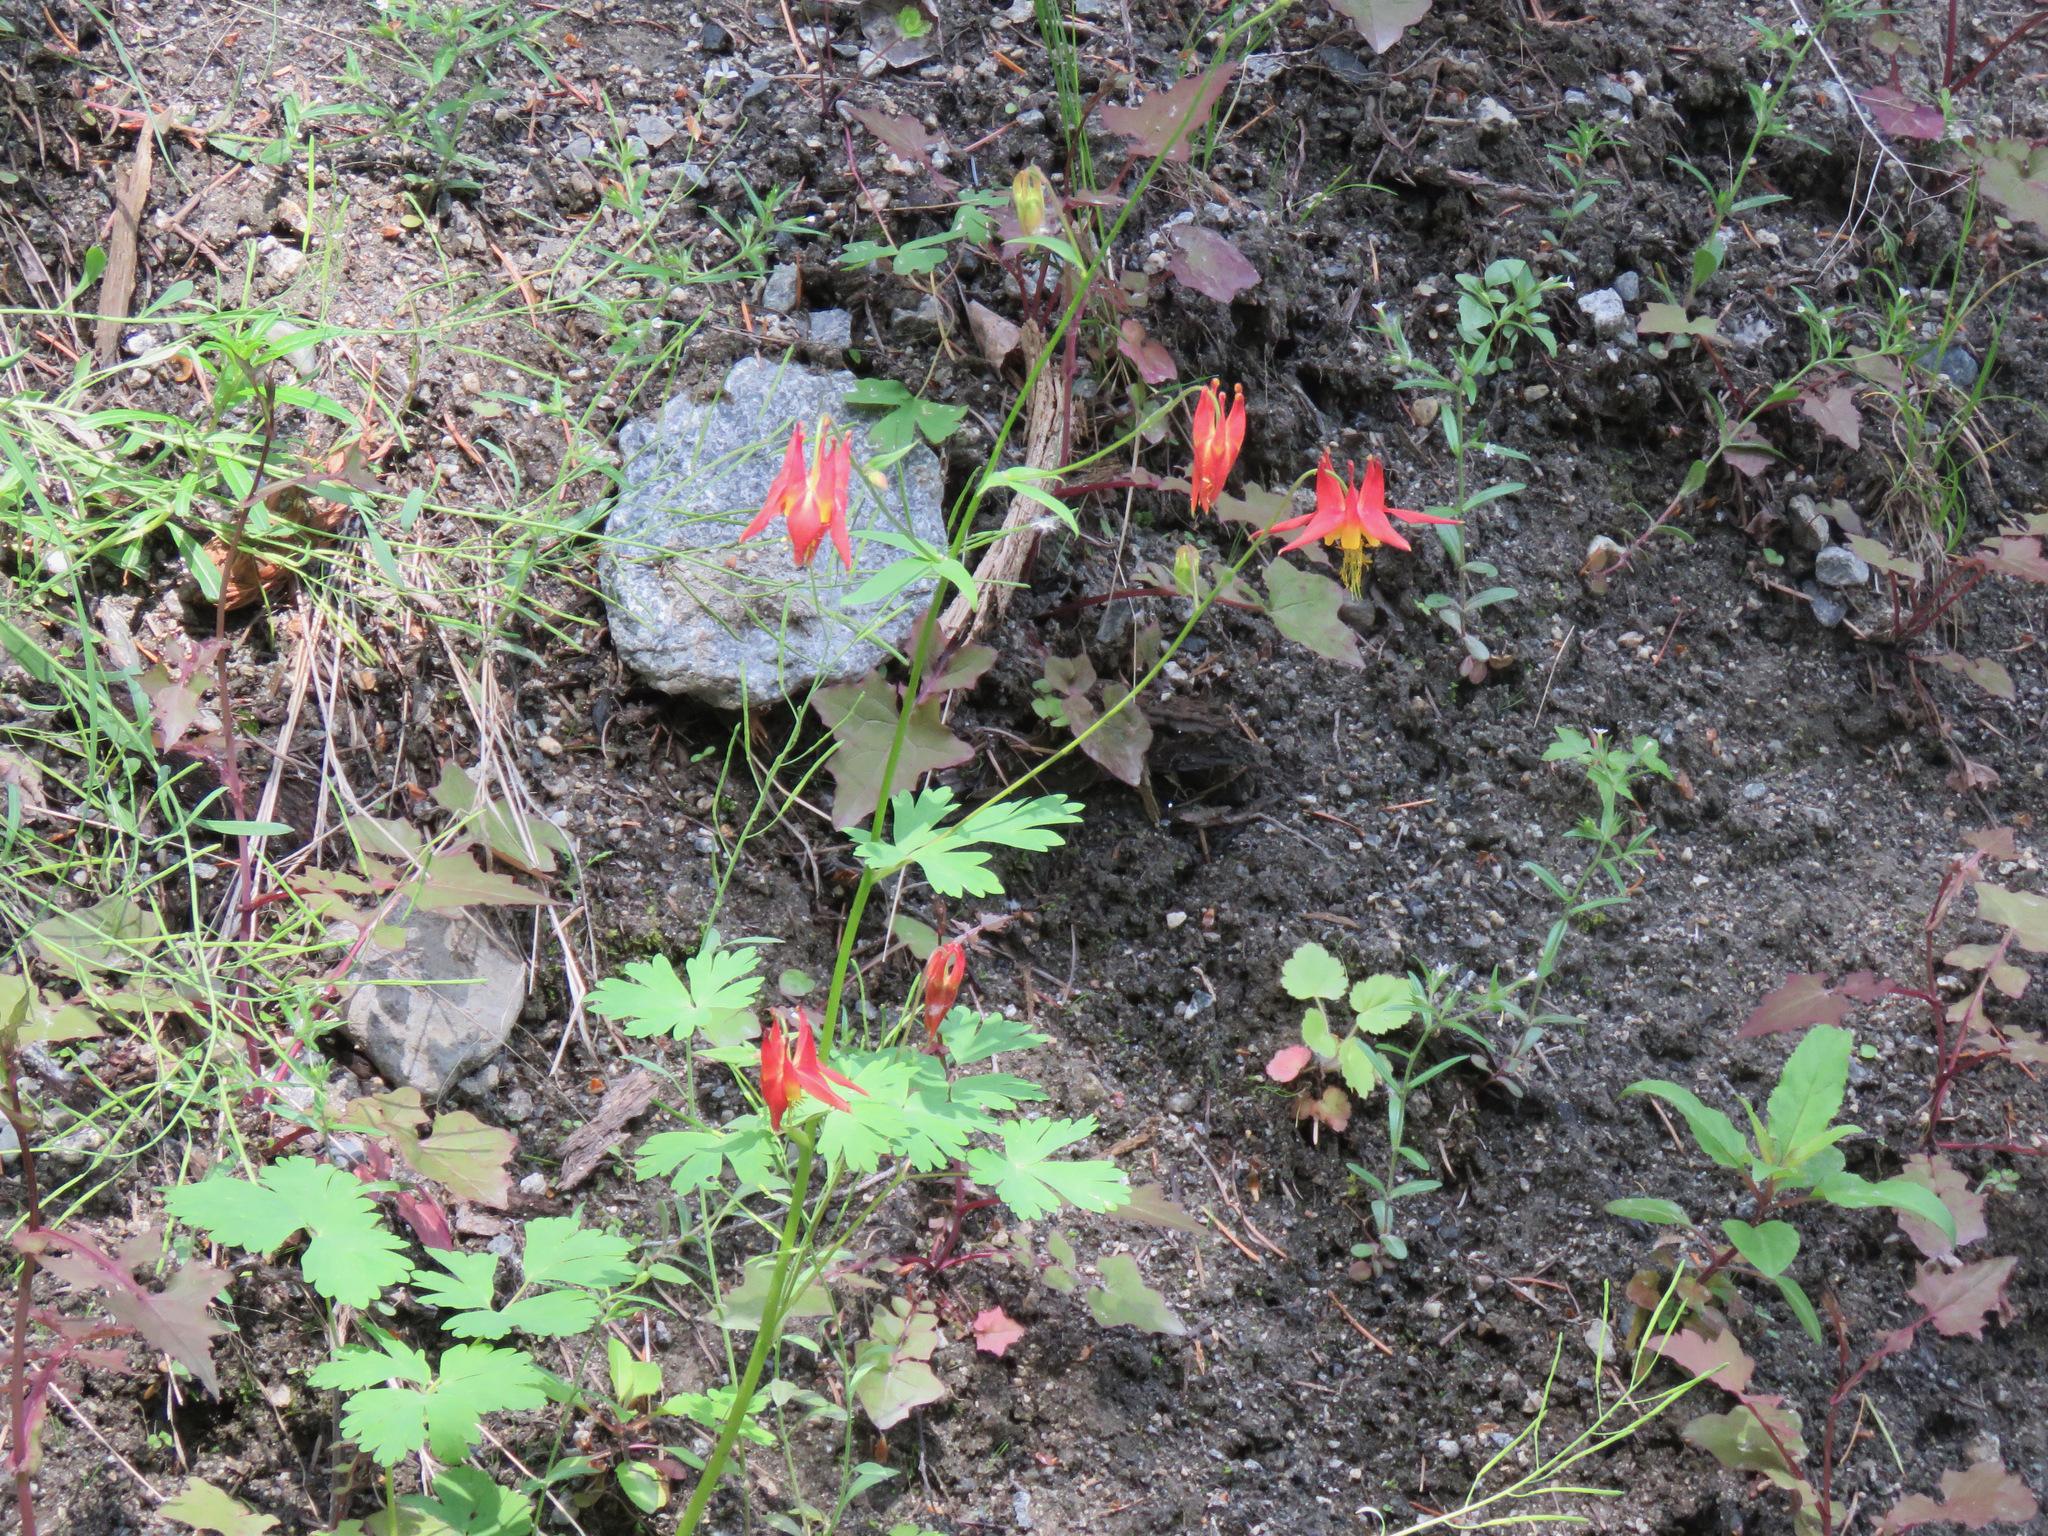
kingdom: Plantae
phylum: Tracheophyta
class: Magnoliopsida
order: Ranunculales
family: Ranunculaceae
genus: Aquilegia
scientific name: Aquilegia formosa
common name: Sitka columbine
